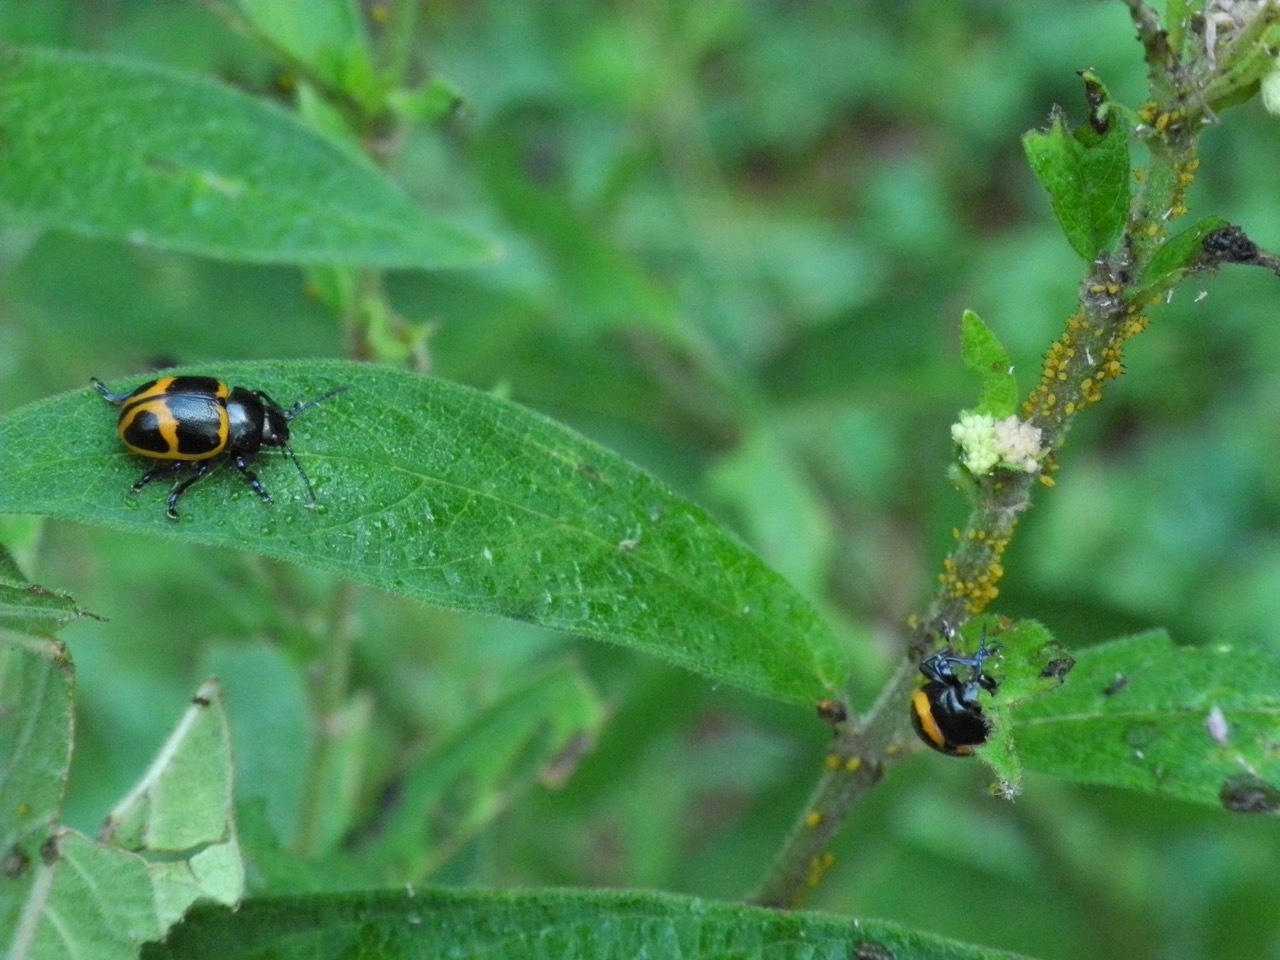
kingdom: Animalia
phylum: Arthropoda
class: Insecta
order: Coleoptera
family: Chrysomelidae
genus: Labidomera
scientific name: Labidomera clivicollis
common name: Swamp milkweed leaf beetle
